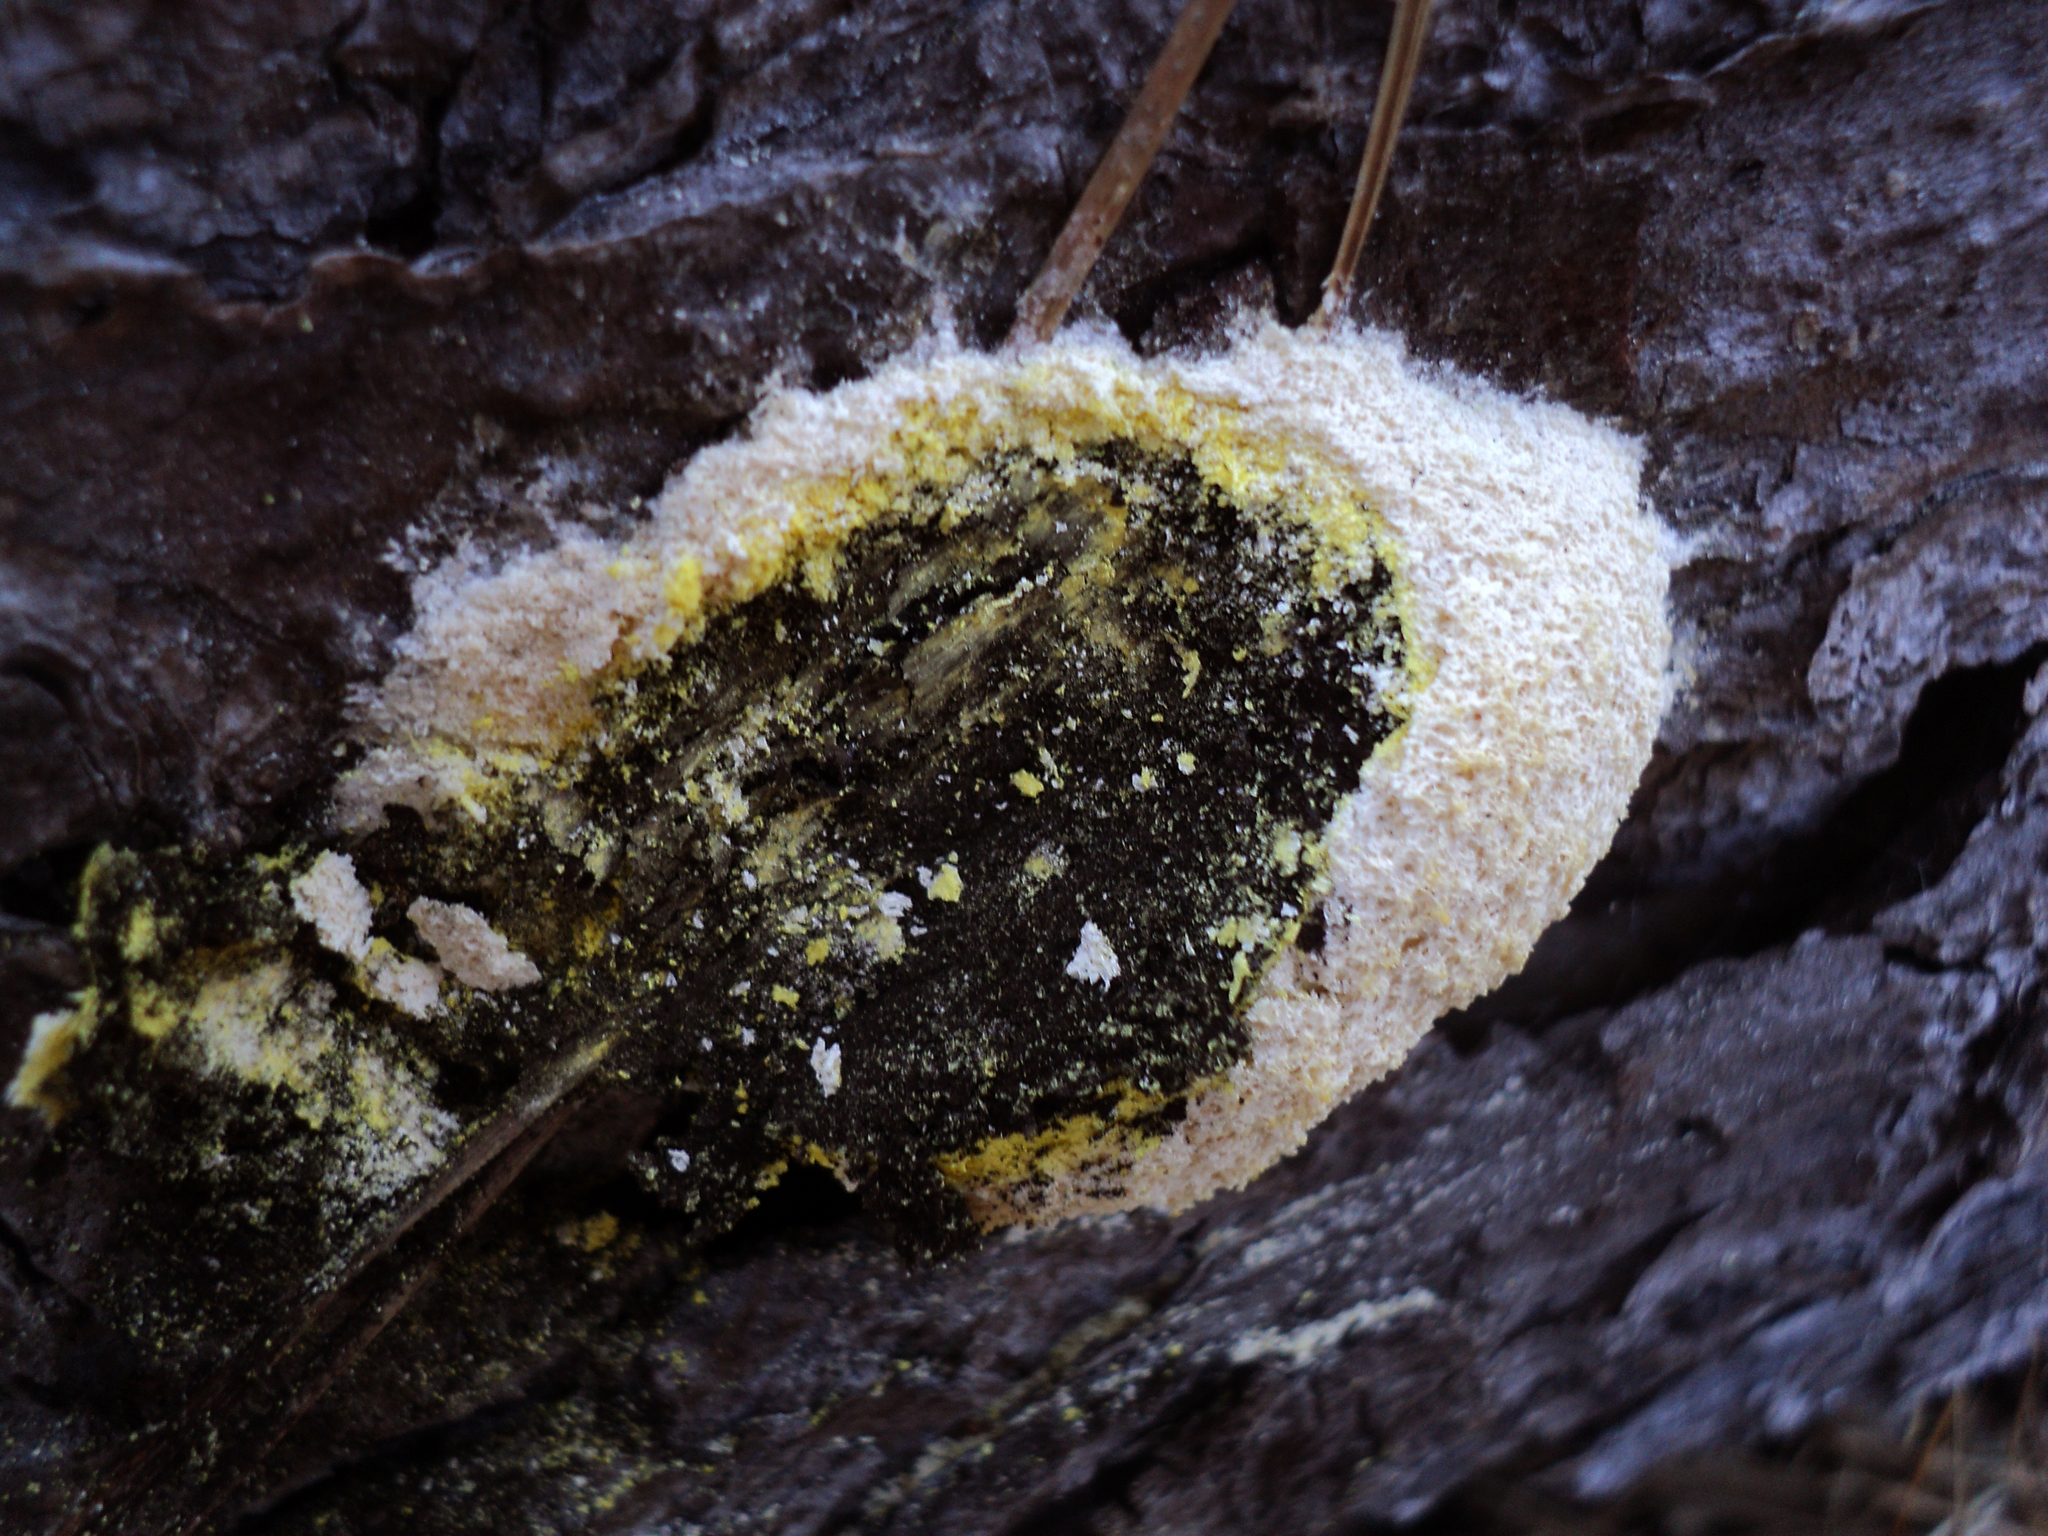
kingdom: Protozoa
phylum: Mycetozoa
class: Myxomycetes
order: Physarales
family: Physaraceae
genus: Fuligo
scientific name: Fuligo septica
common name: Dog vomit slime mold
